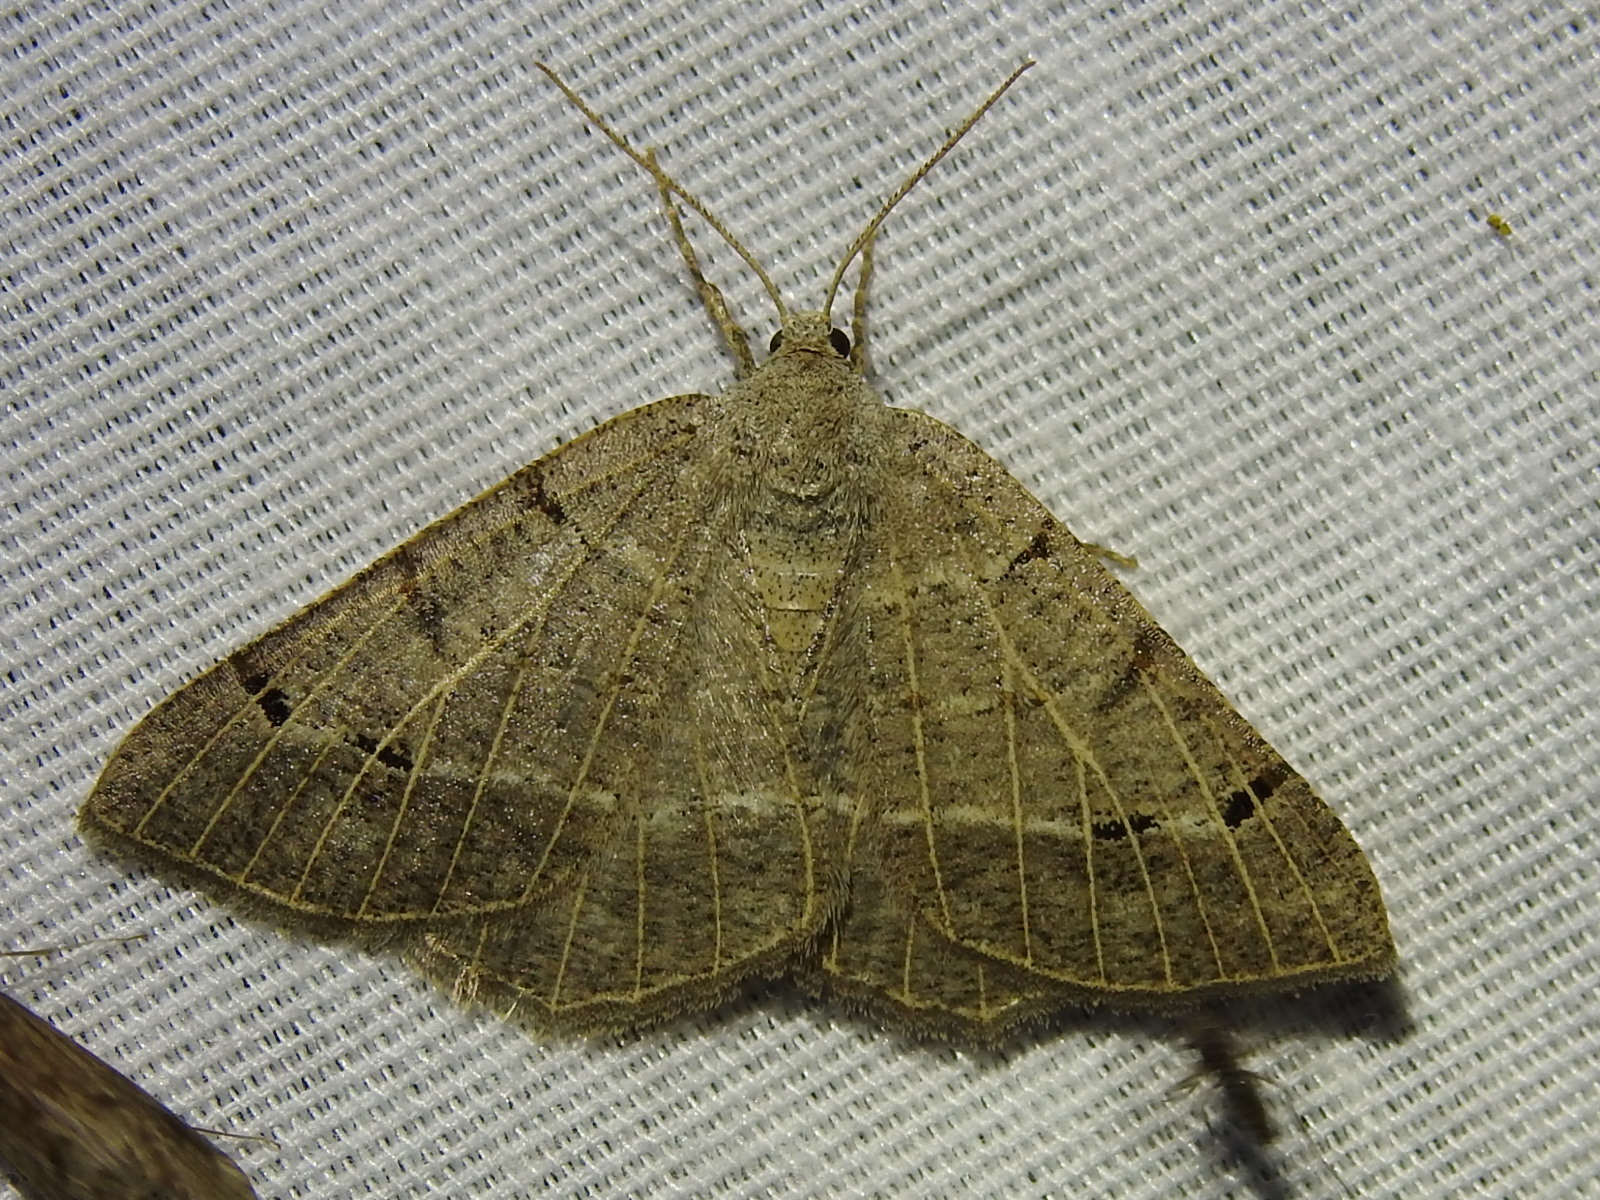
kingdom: Animalia
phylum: Arthropoda
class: Insecta
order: Lepidoptera
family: Geometridae
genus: Isturgia
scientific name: Isturgia dislocaria
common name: Pale-viened enconista
